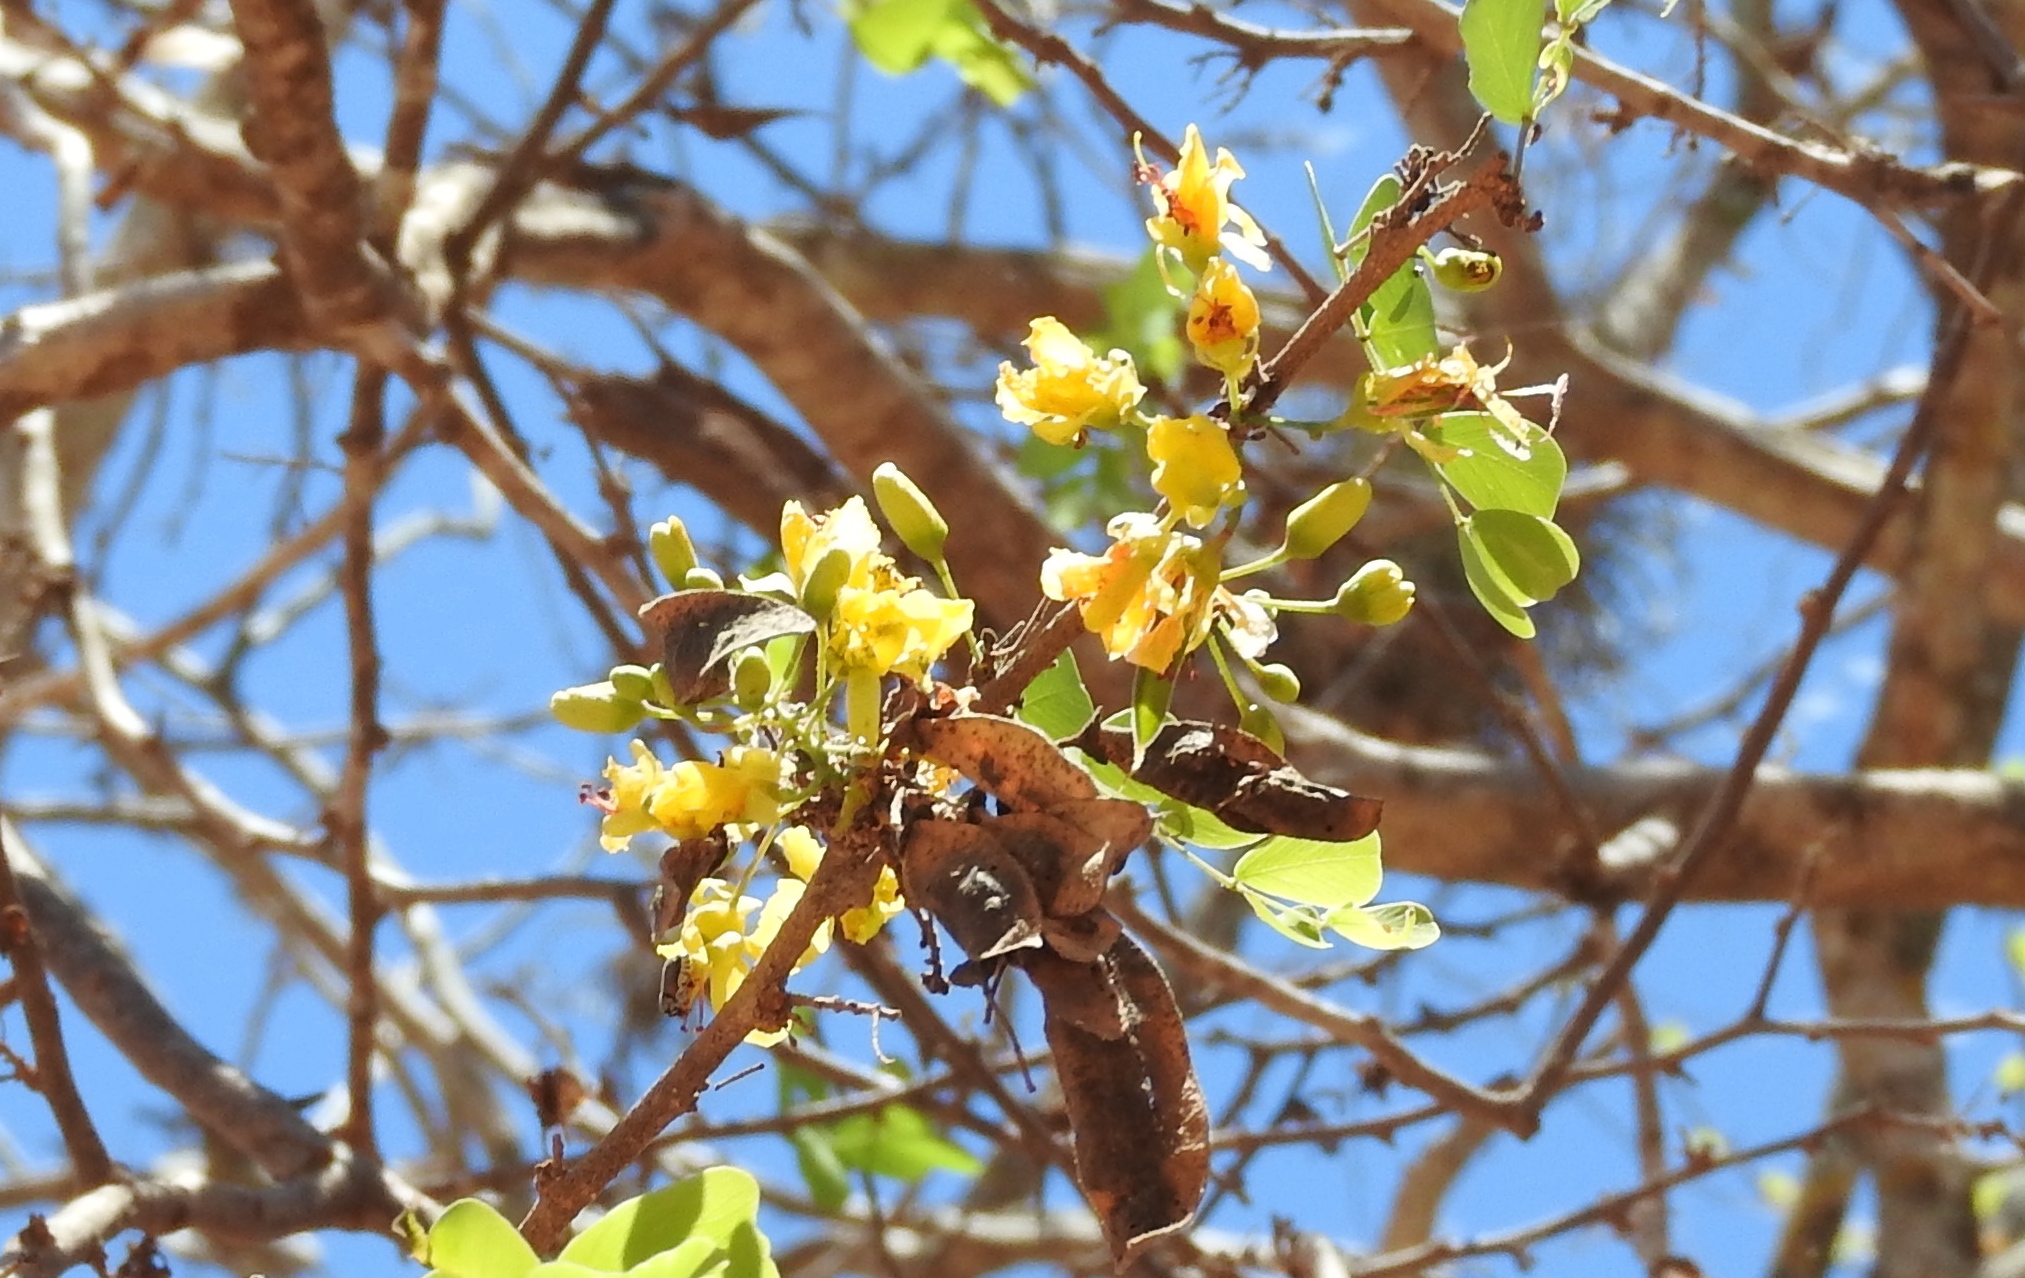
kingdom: Plantae
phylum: Tracheophyta
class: Magnoliopsida
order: Fabales
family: Fabaceae
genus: Haematoxylum
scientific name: Haematoxylum brasiletto
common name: Peachwood
